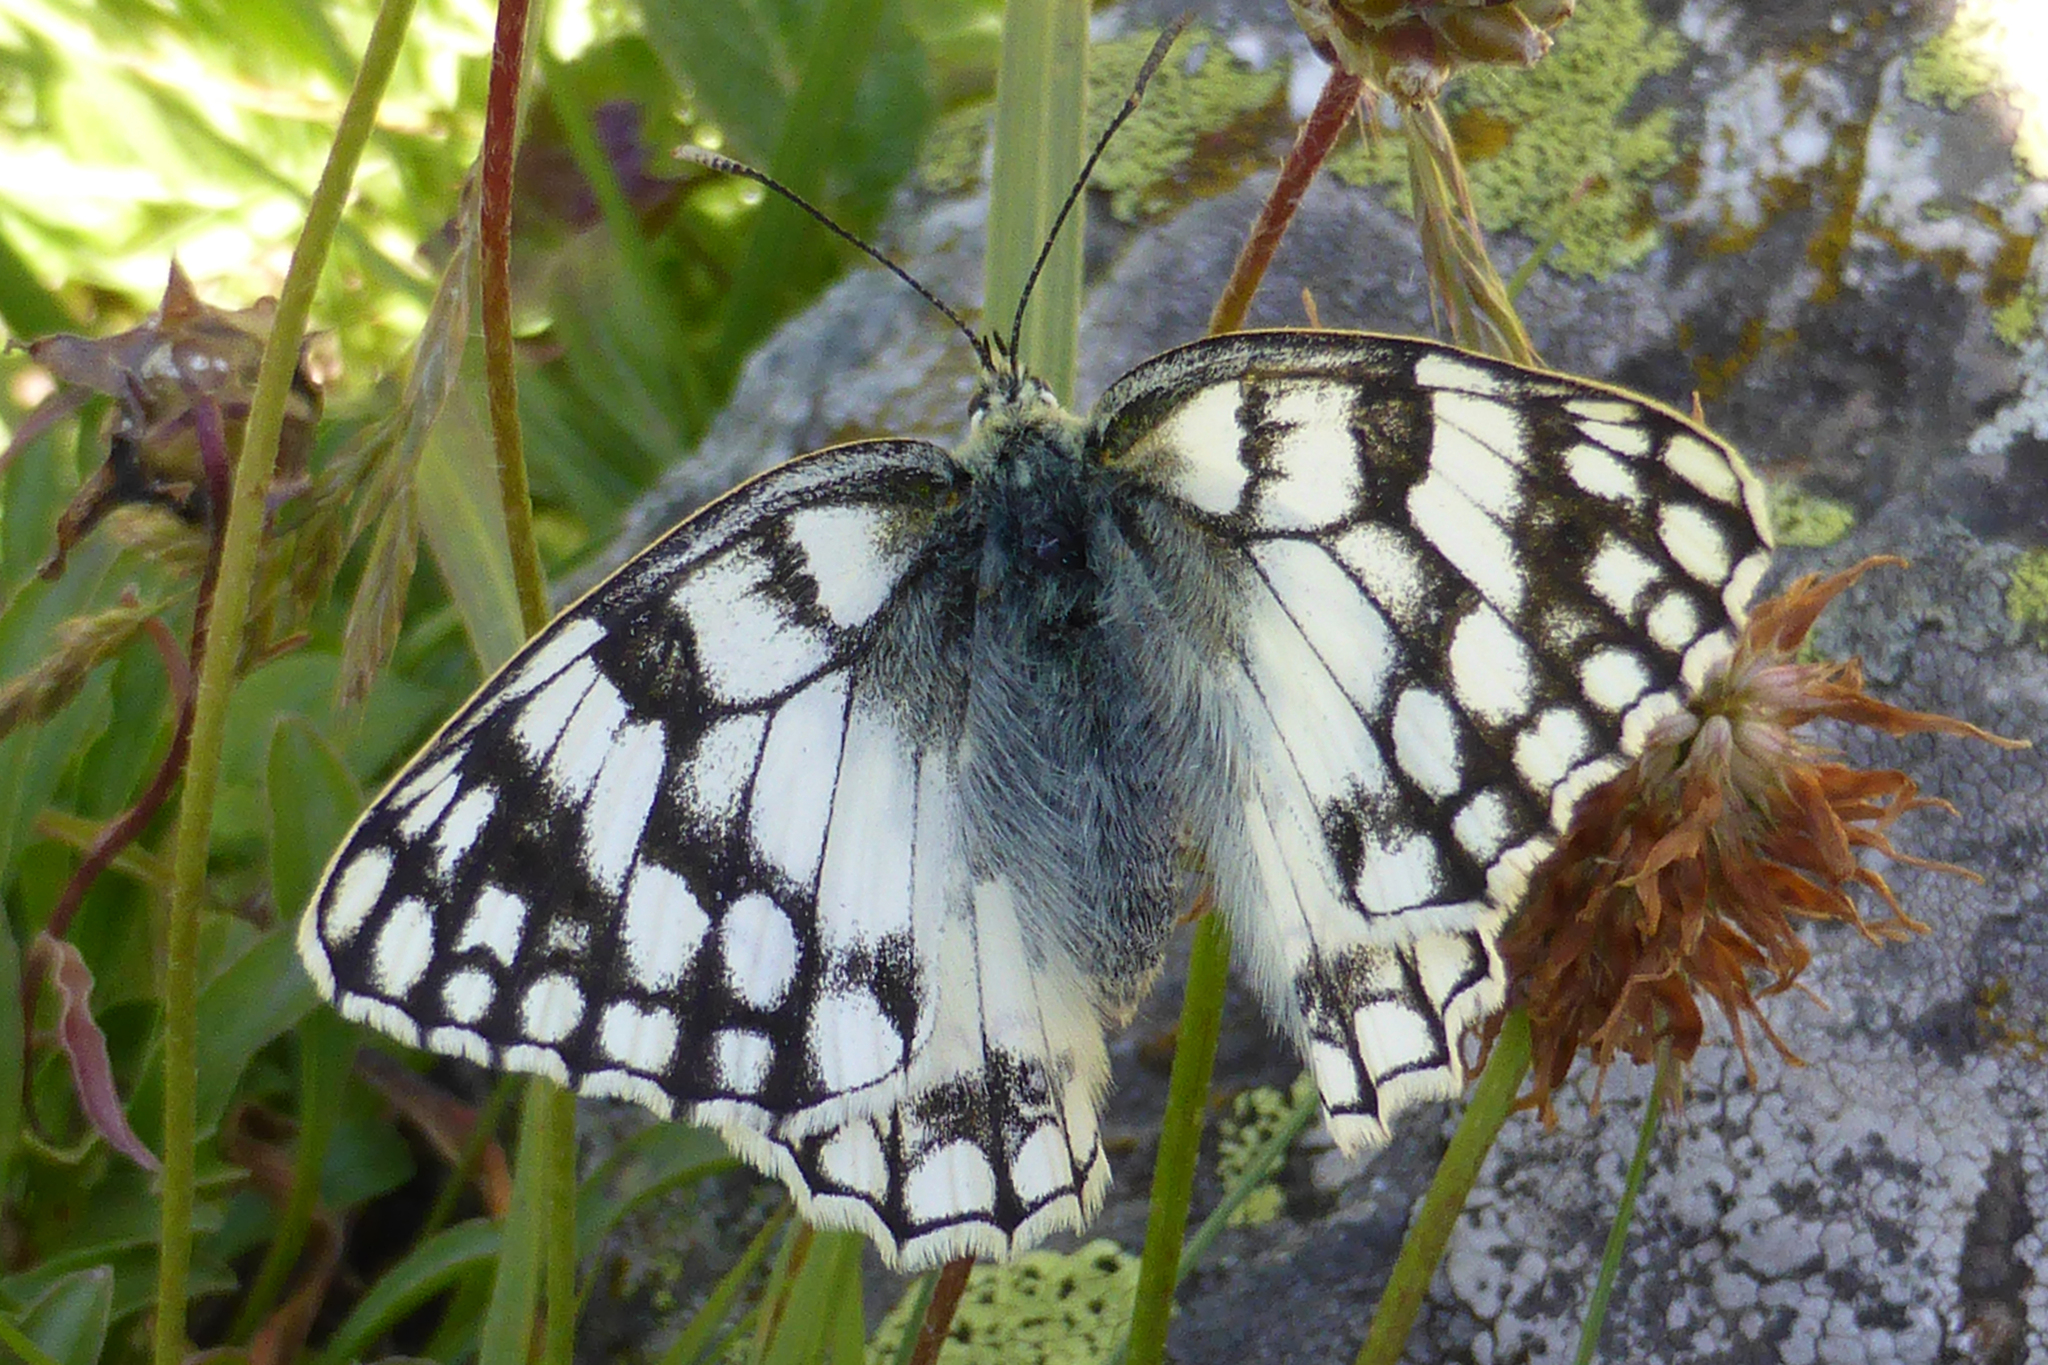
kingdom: Animalia
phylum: Arthropoda
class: Insecta
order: Lepidoptera
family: Nymphalidae
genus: Melanargia
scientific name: Melanargia japygia
